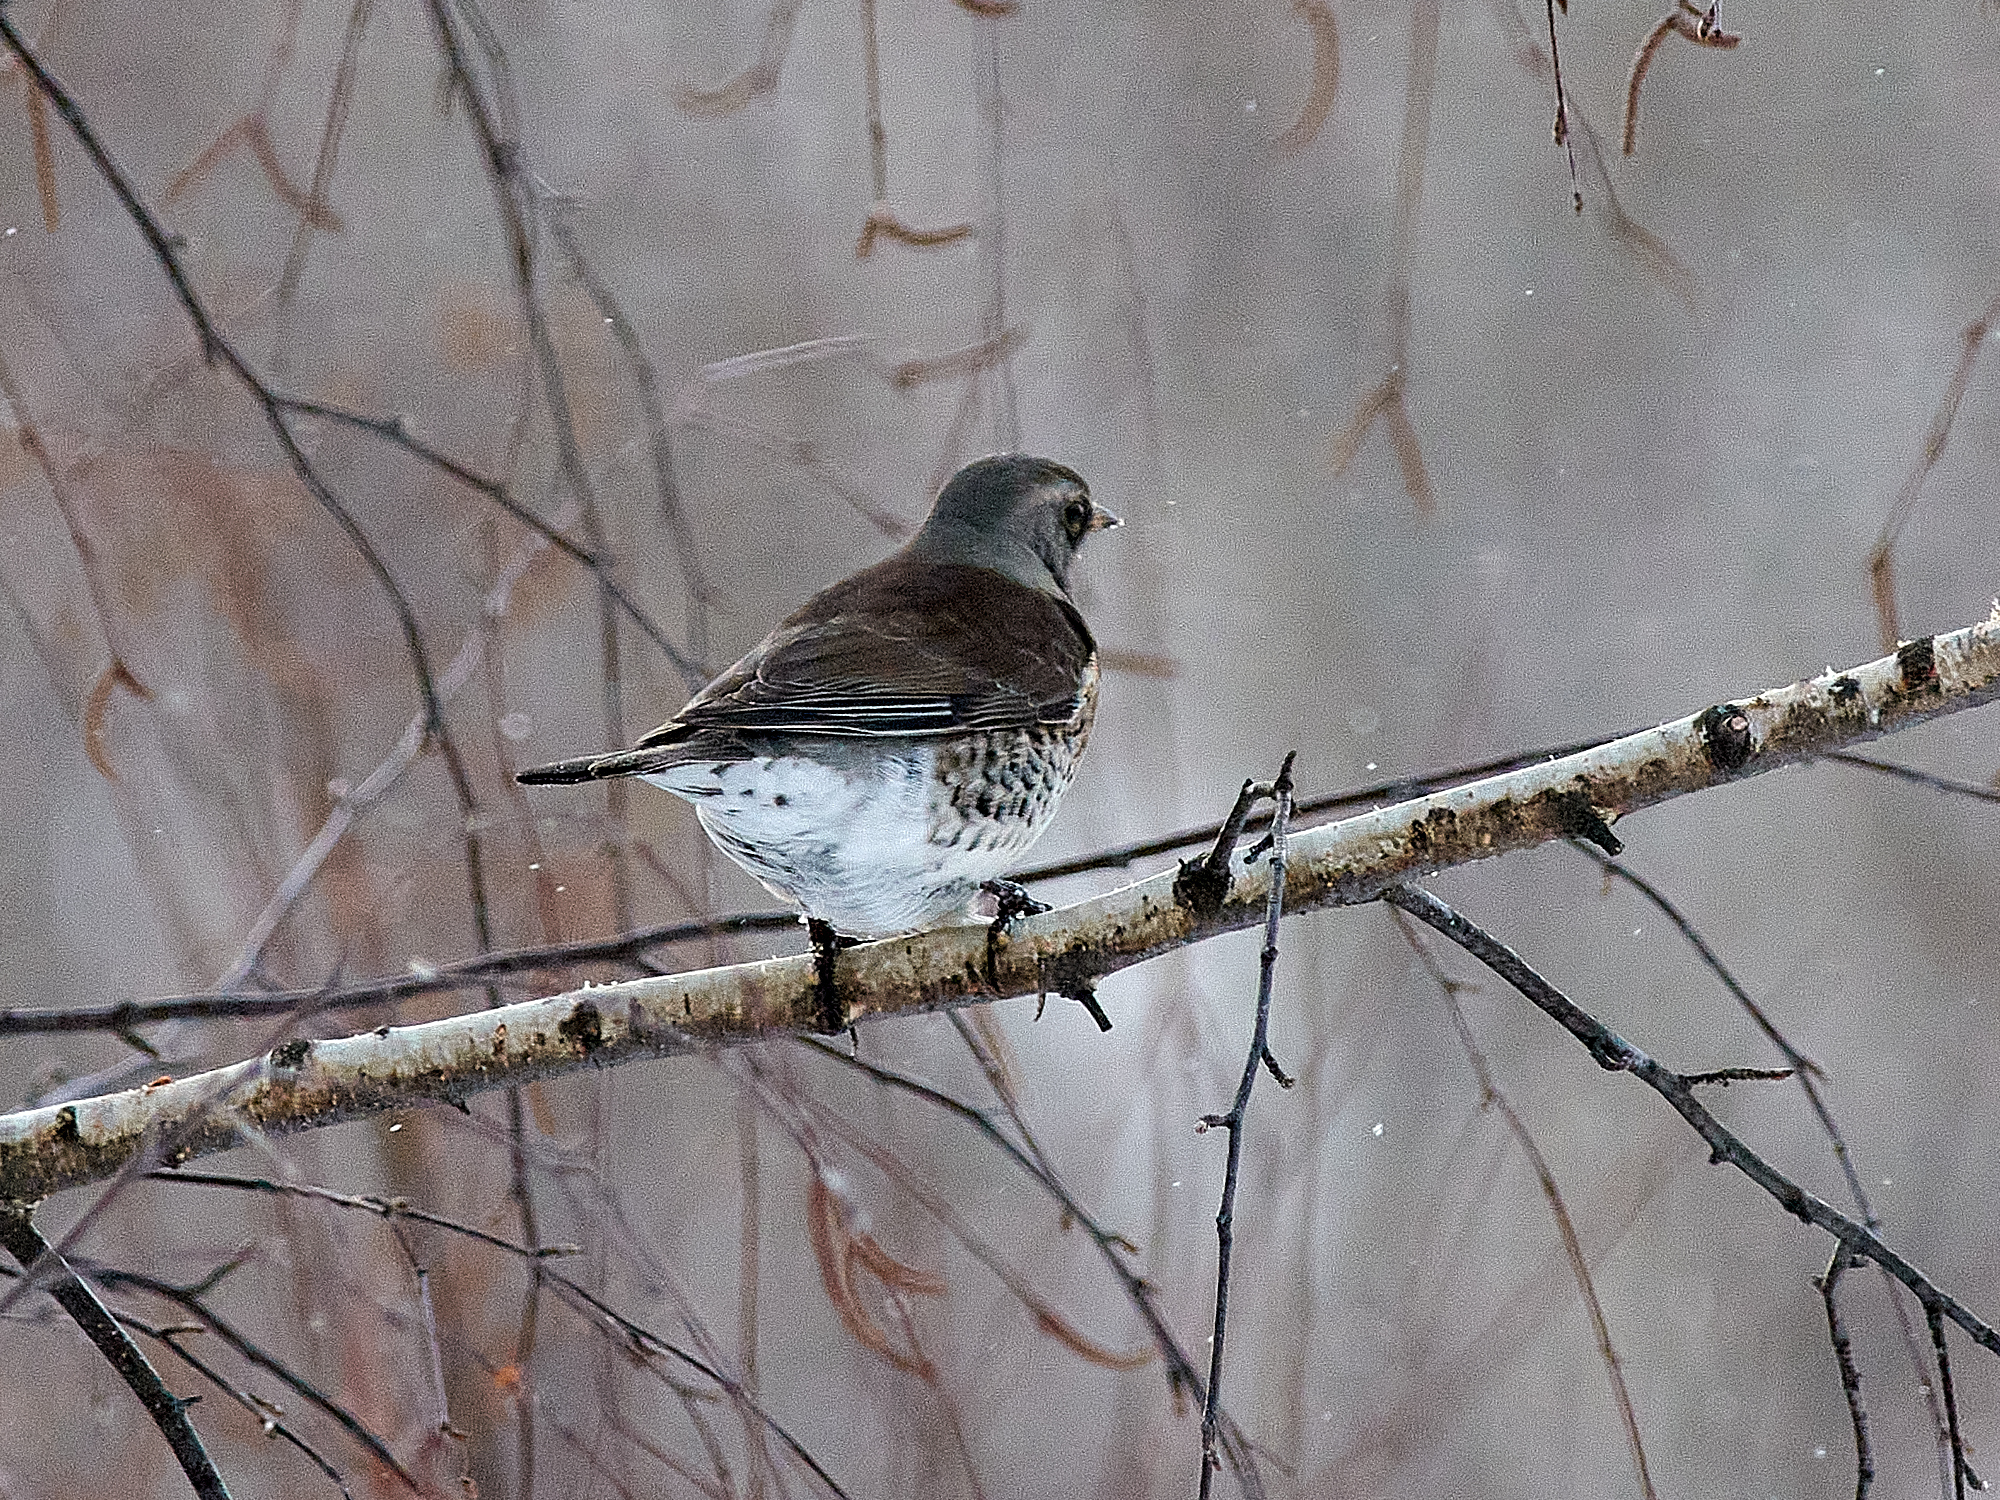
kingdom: Animalia
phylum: Chordata
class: Aves
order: Passeriformes
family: Turdidae
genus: Turdus
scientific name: Turdus pilaris
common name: Fieldfare
